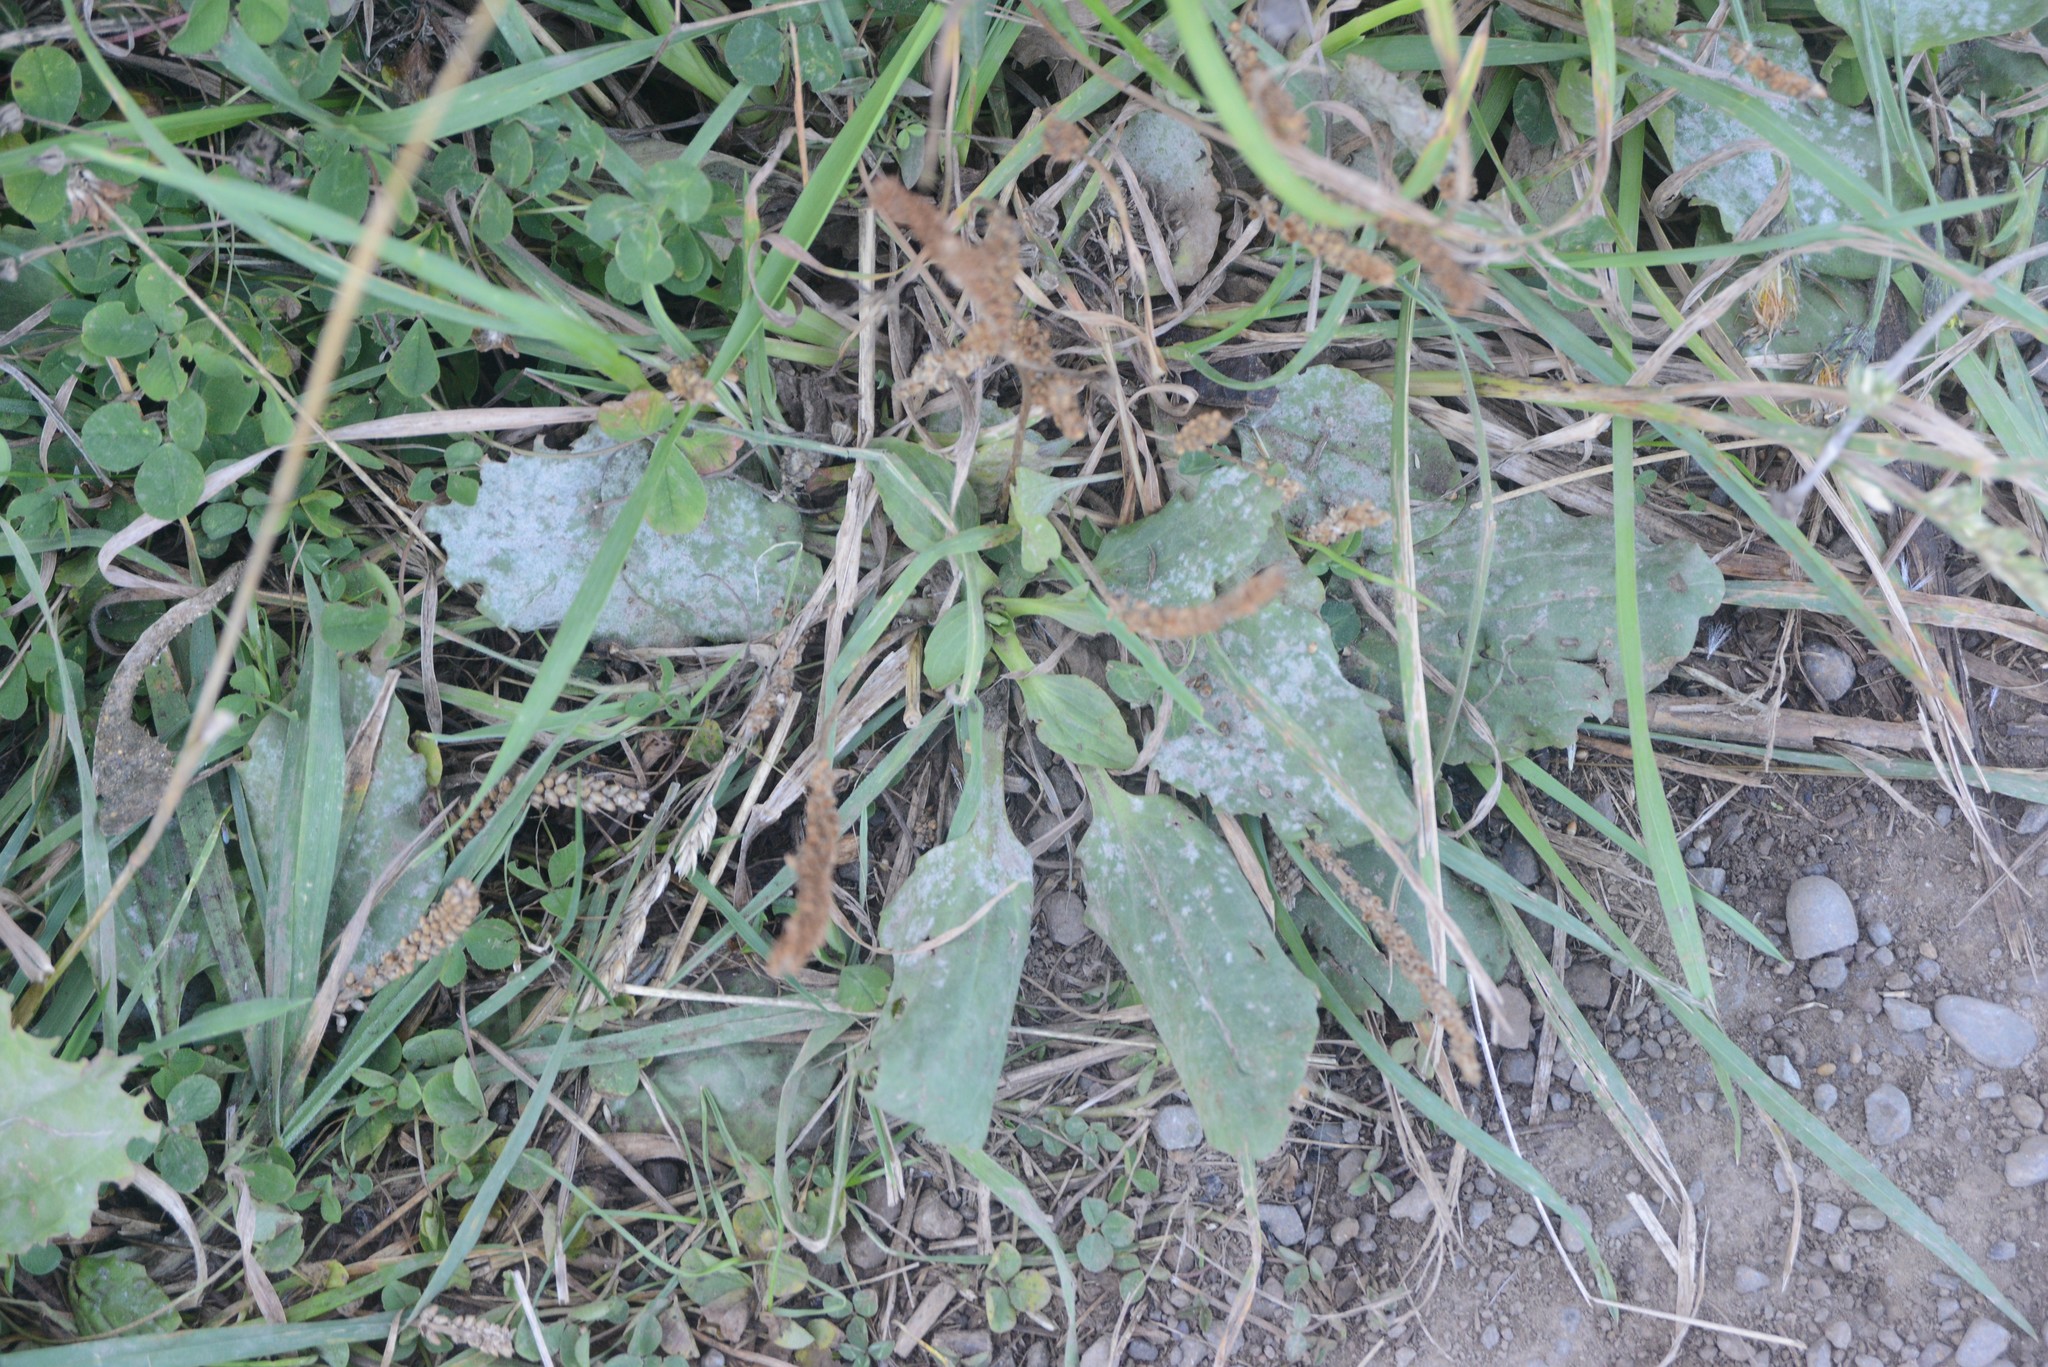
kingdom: Plantae
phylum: Tracheophyta
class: Magnoliopsida
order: Lamiales
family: Plantaginaceae
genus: Plantago
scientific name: Plantago major
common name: Common plantain
